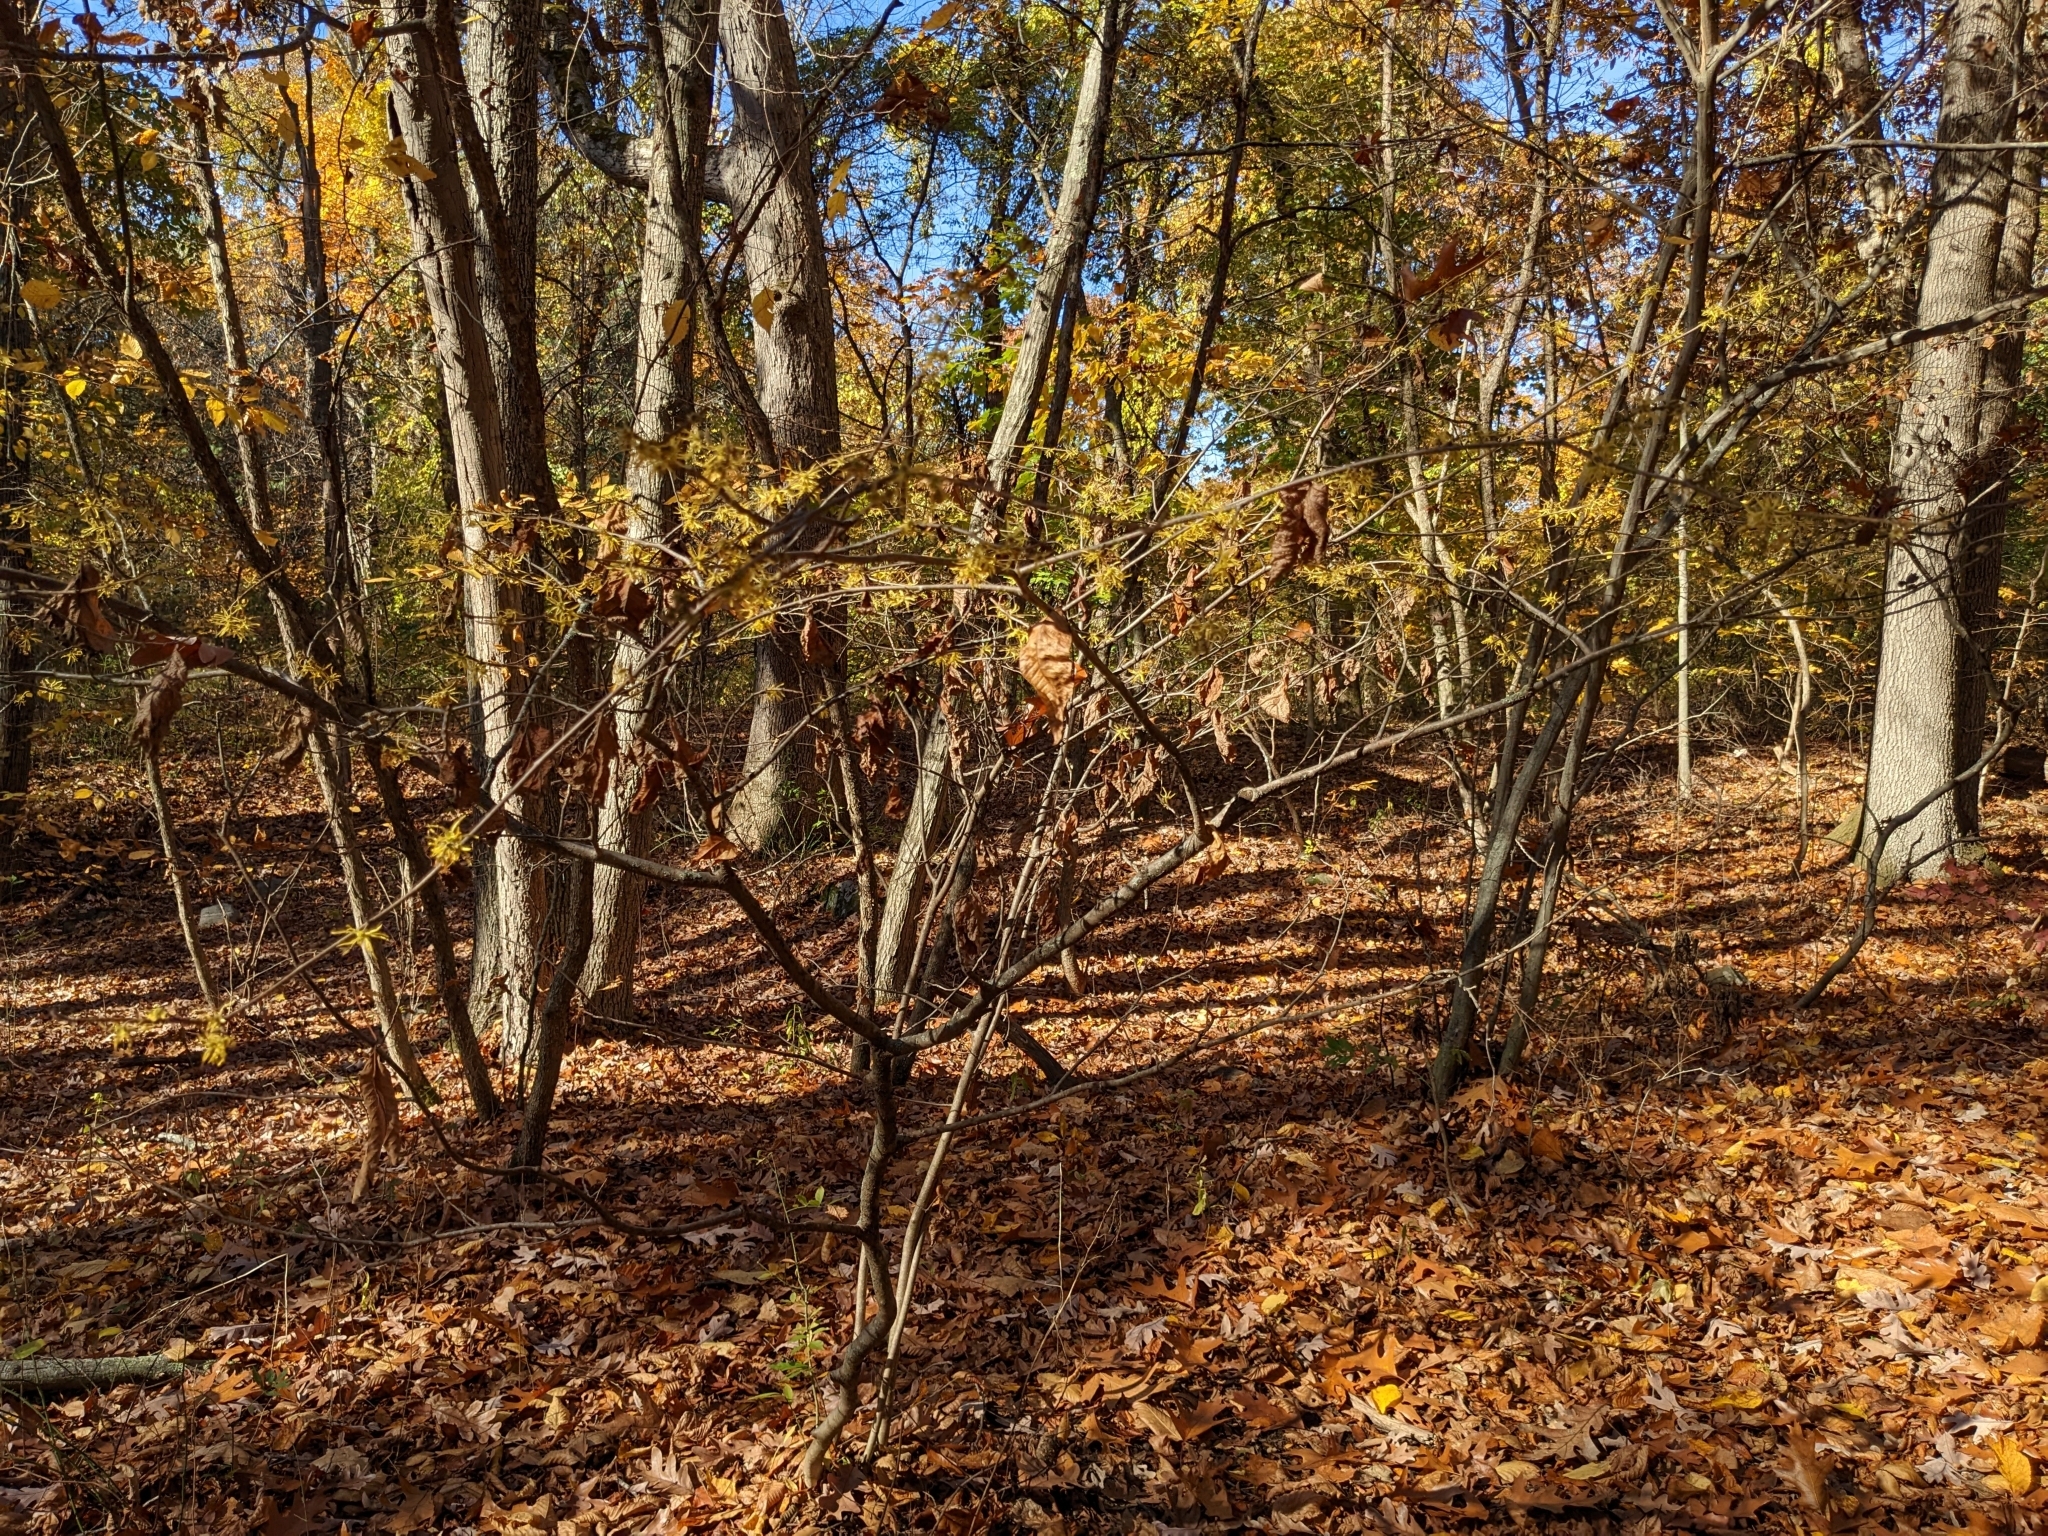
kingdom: Plantae
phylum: Tracheophyta
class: Magnoliopsida
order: Saxifragales
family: Hamamelidaceae
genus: Hamamelis
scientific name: Hamamelis virginiana
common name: Witch-hazel
